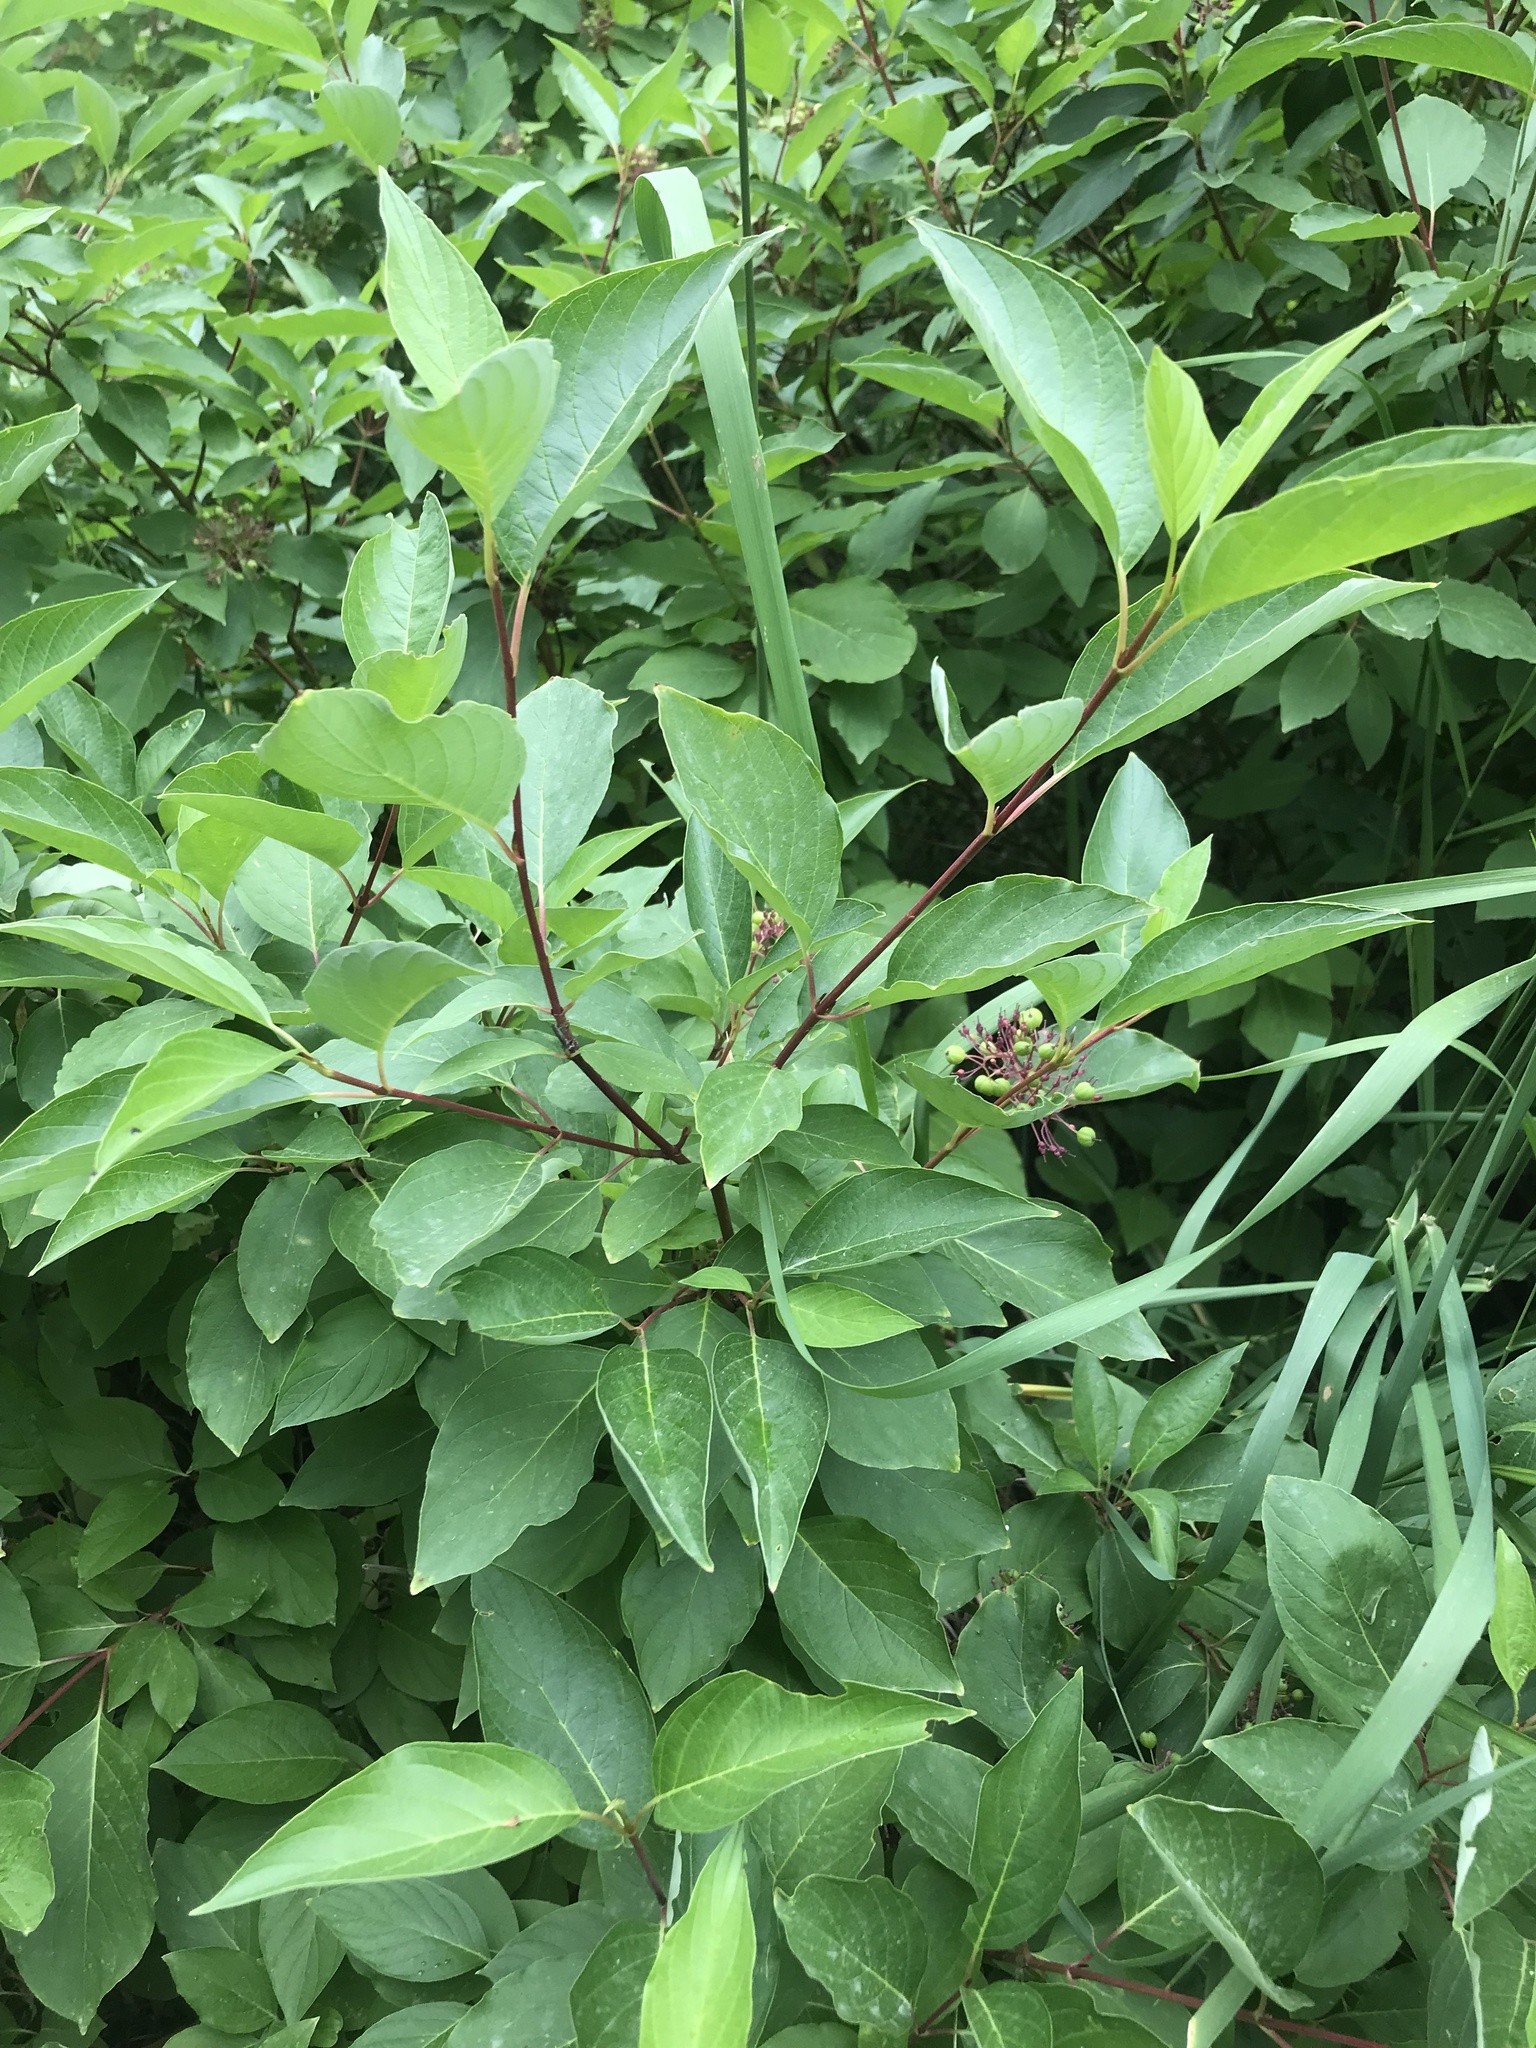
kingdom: Plantae
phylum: Tracheophyta
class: Magnoliopsida
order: Cornales
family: Cornaceae
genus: Cornus
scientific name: Cornus sericea
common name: Red-osier dogwood
